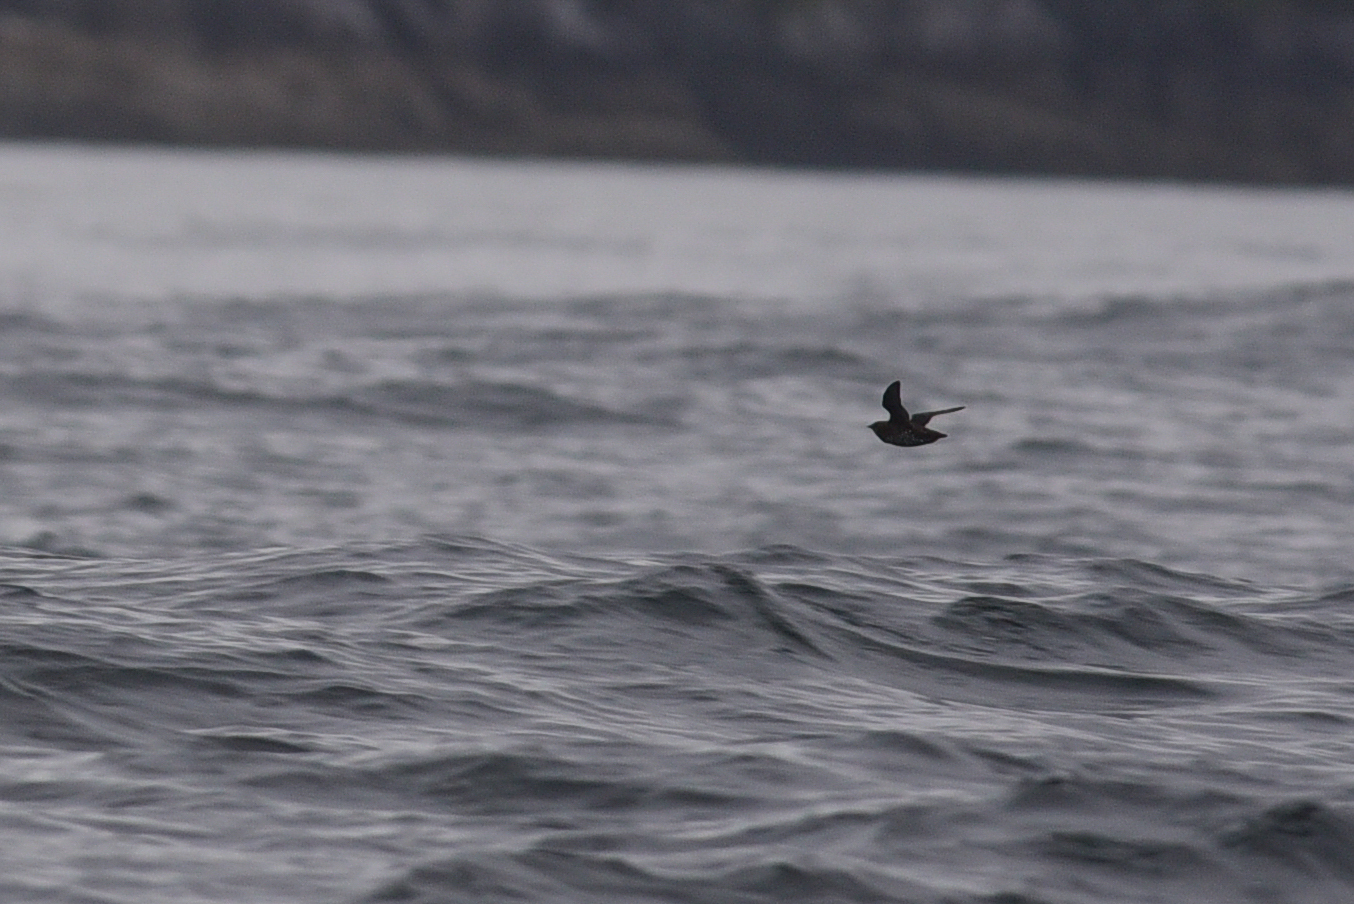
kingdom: Animalia
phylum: Chordata
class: Aves
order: Charadriiformes
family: Alcidae
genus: Brachyramphus
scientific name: Brachyramphus marmoratus
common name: Marbled murrelet
